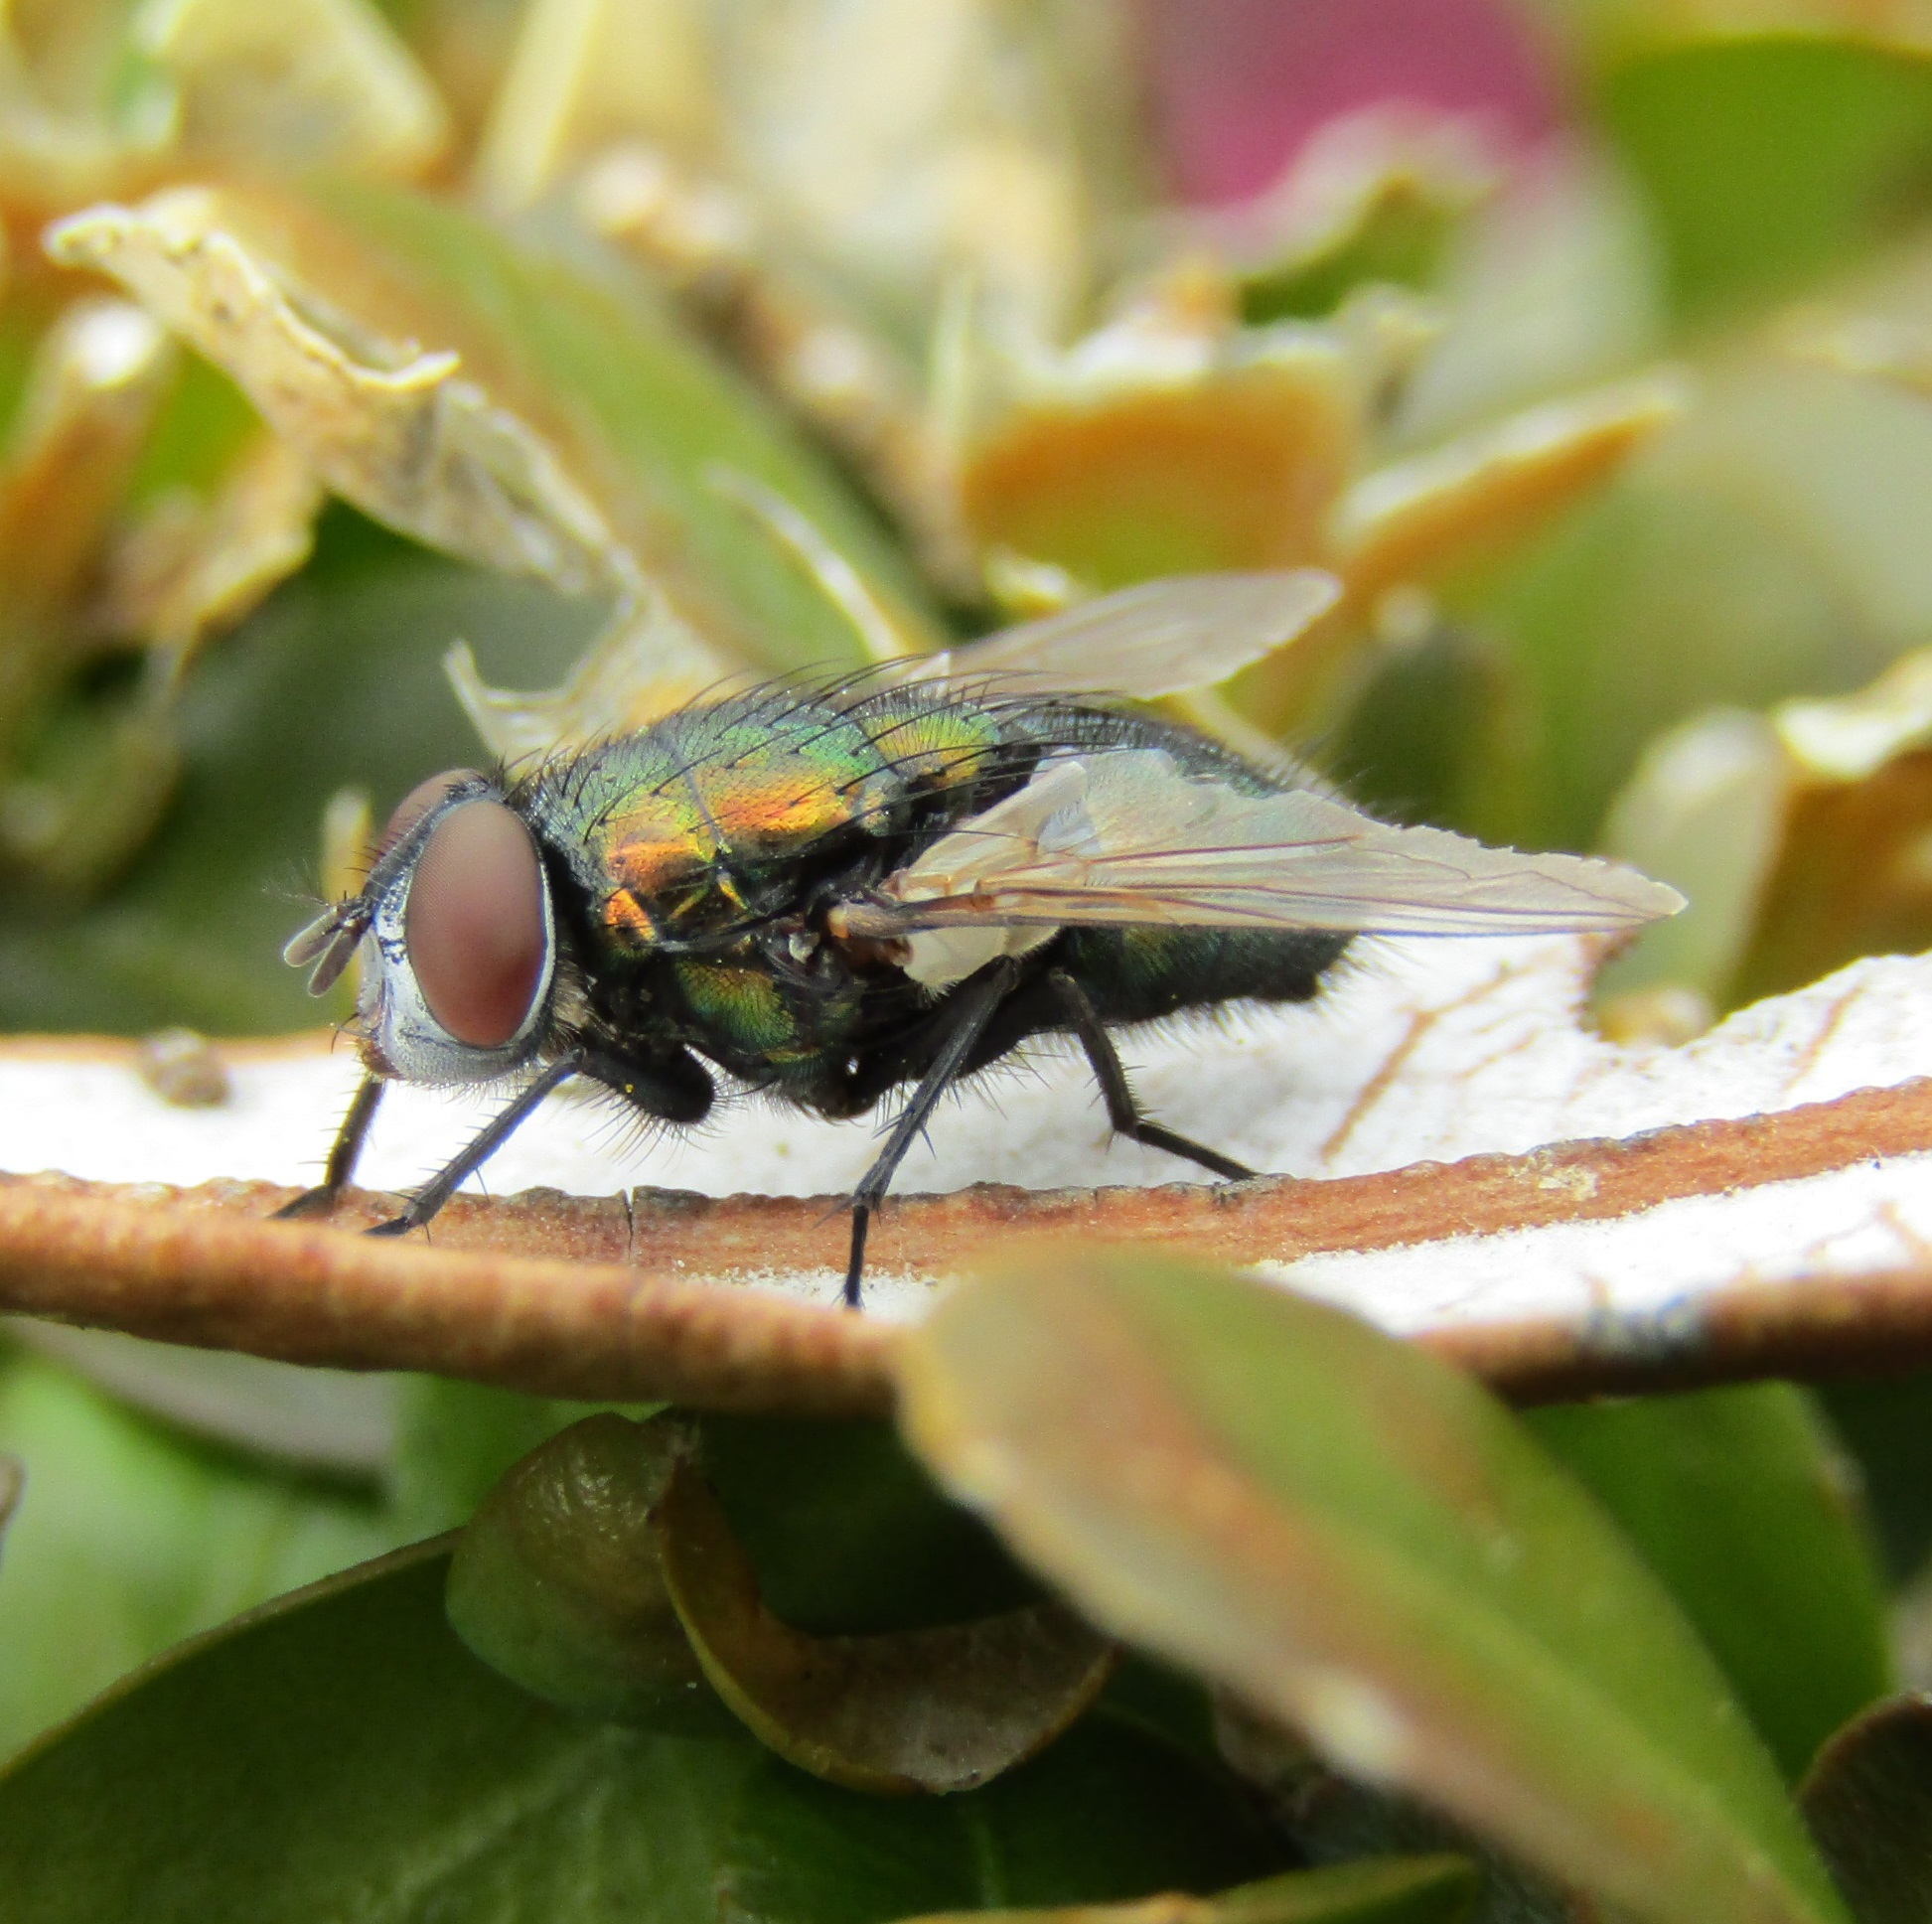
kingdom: Animalia
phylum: Arthropoda
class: Insecta
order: Diptera
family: Calliphoridae
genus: Lucilia
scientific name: Lucilia sericata
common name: Blow fly
